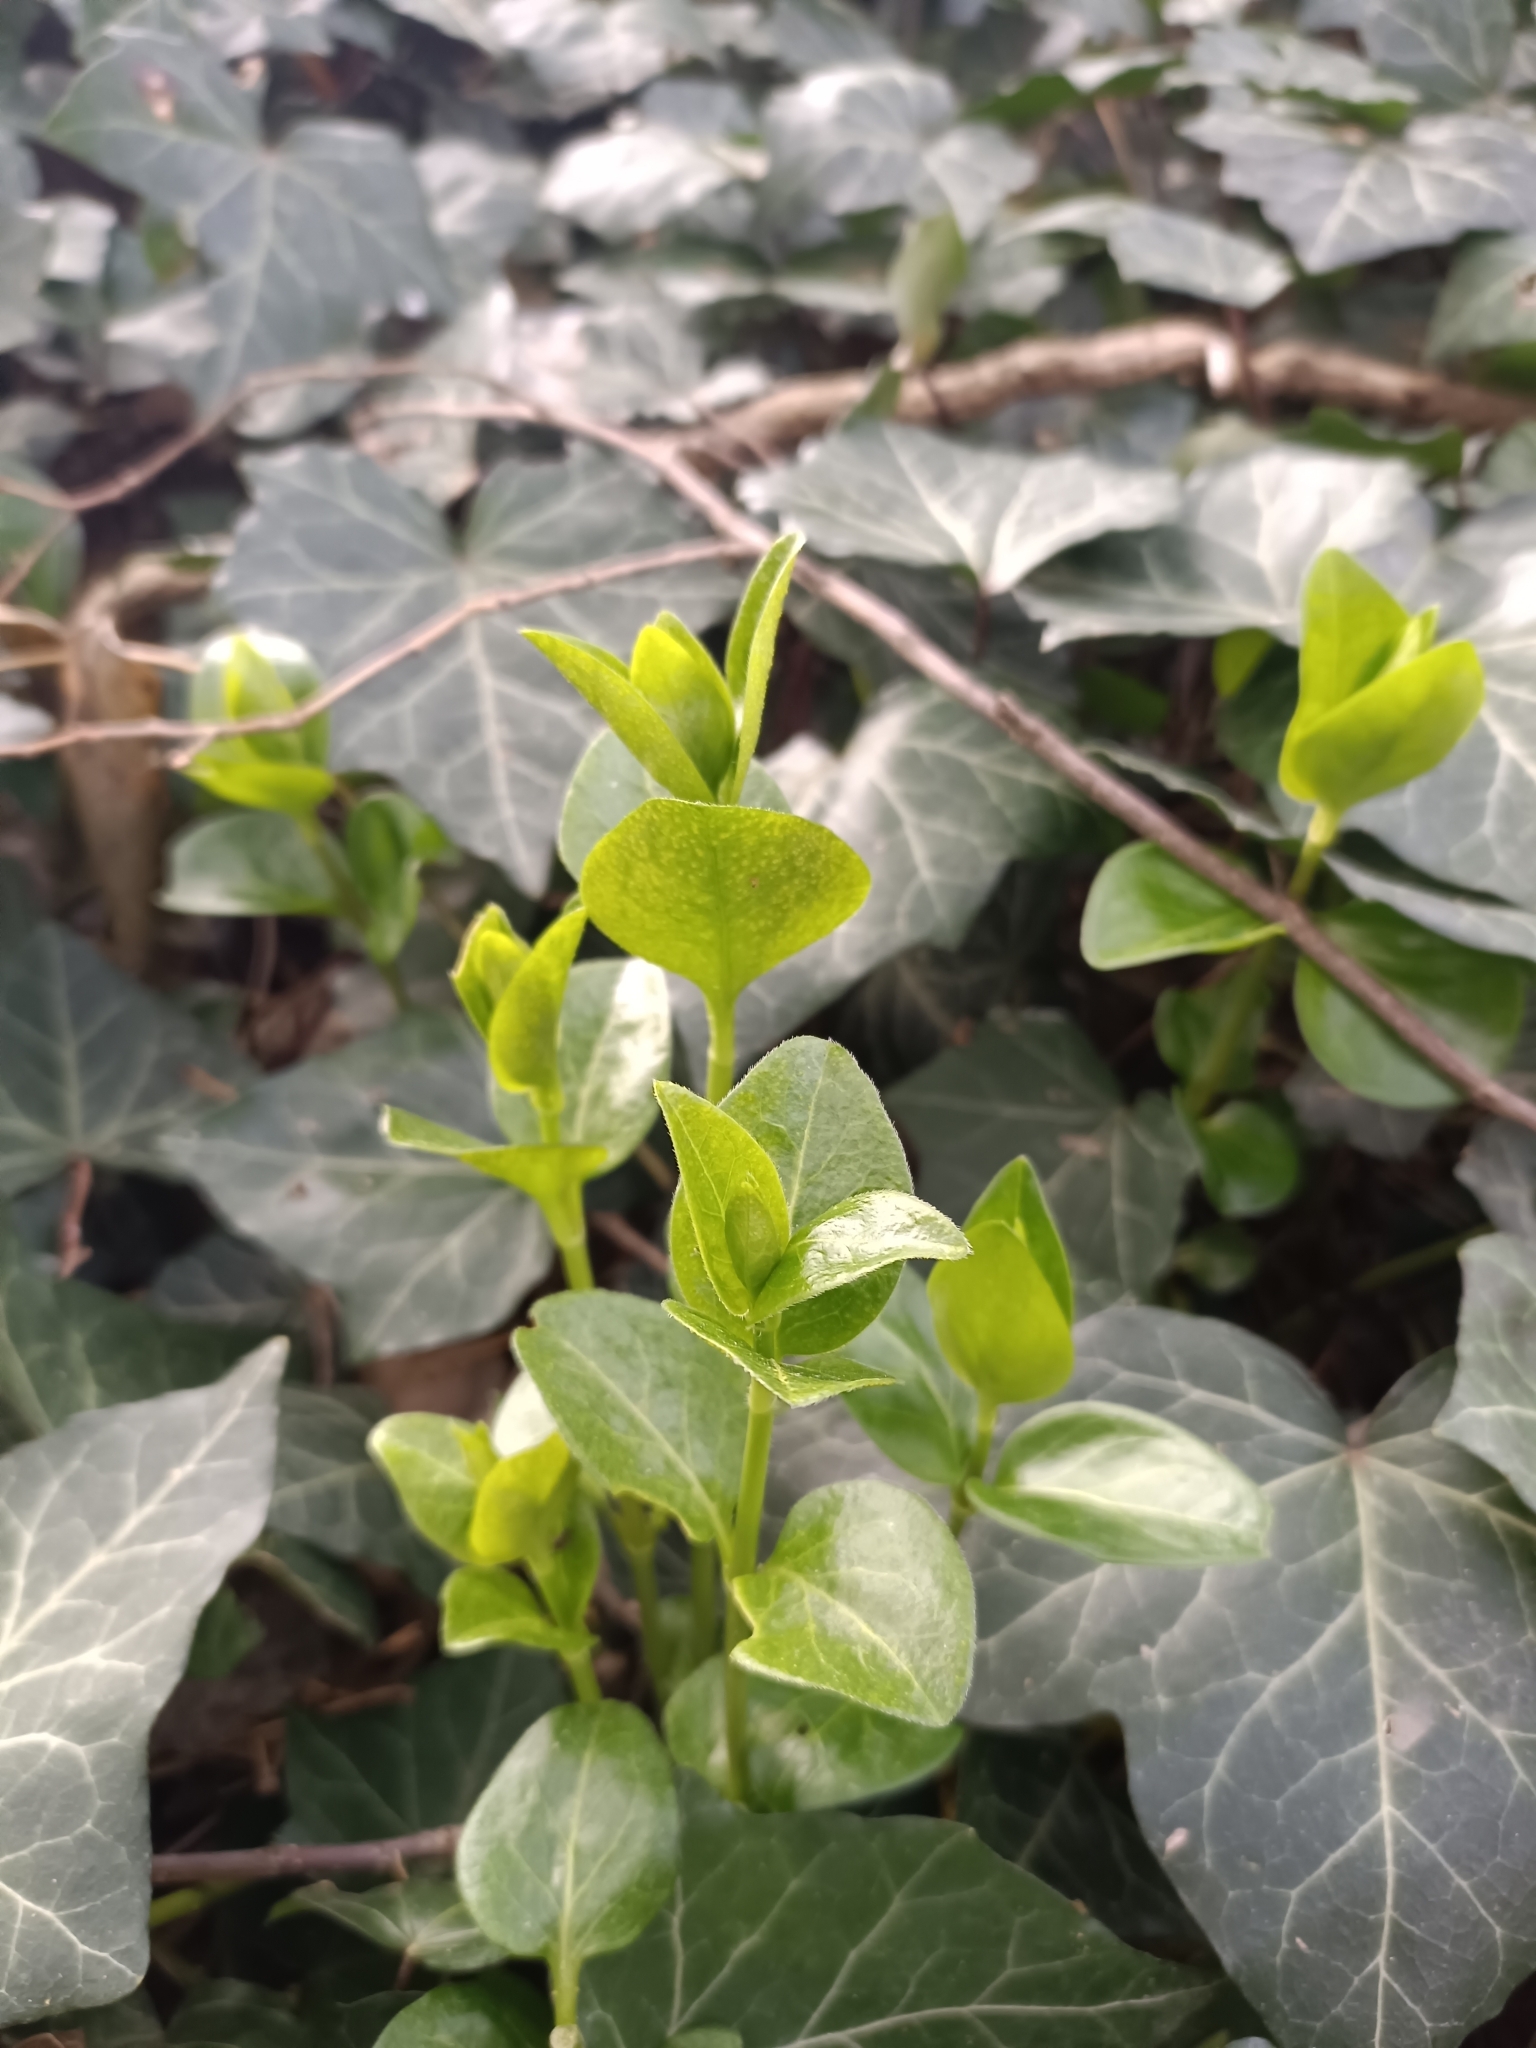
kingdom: Plantae
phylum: Tracheophyta
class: Magnoliopsida
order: Gentianales
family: Apocynaceae
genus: Vinca
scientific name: Vinca major
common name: Greater periwinkle
